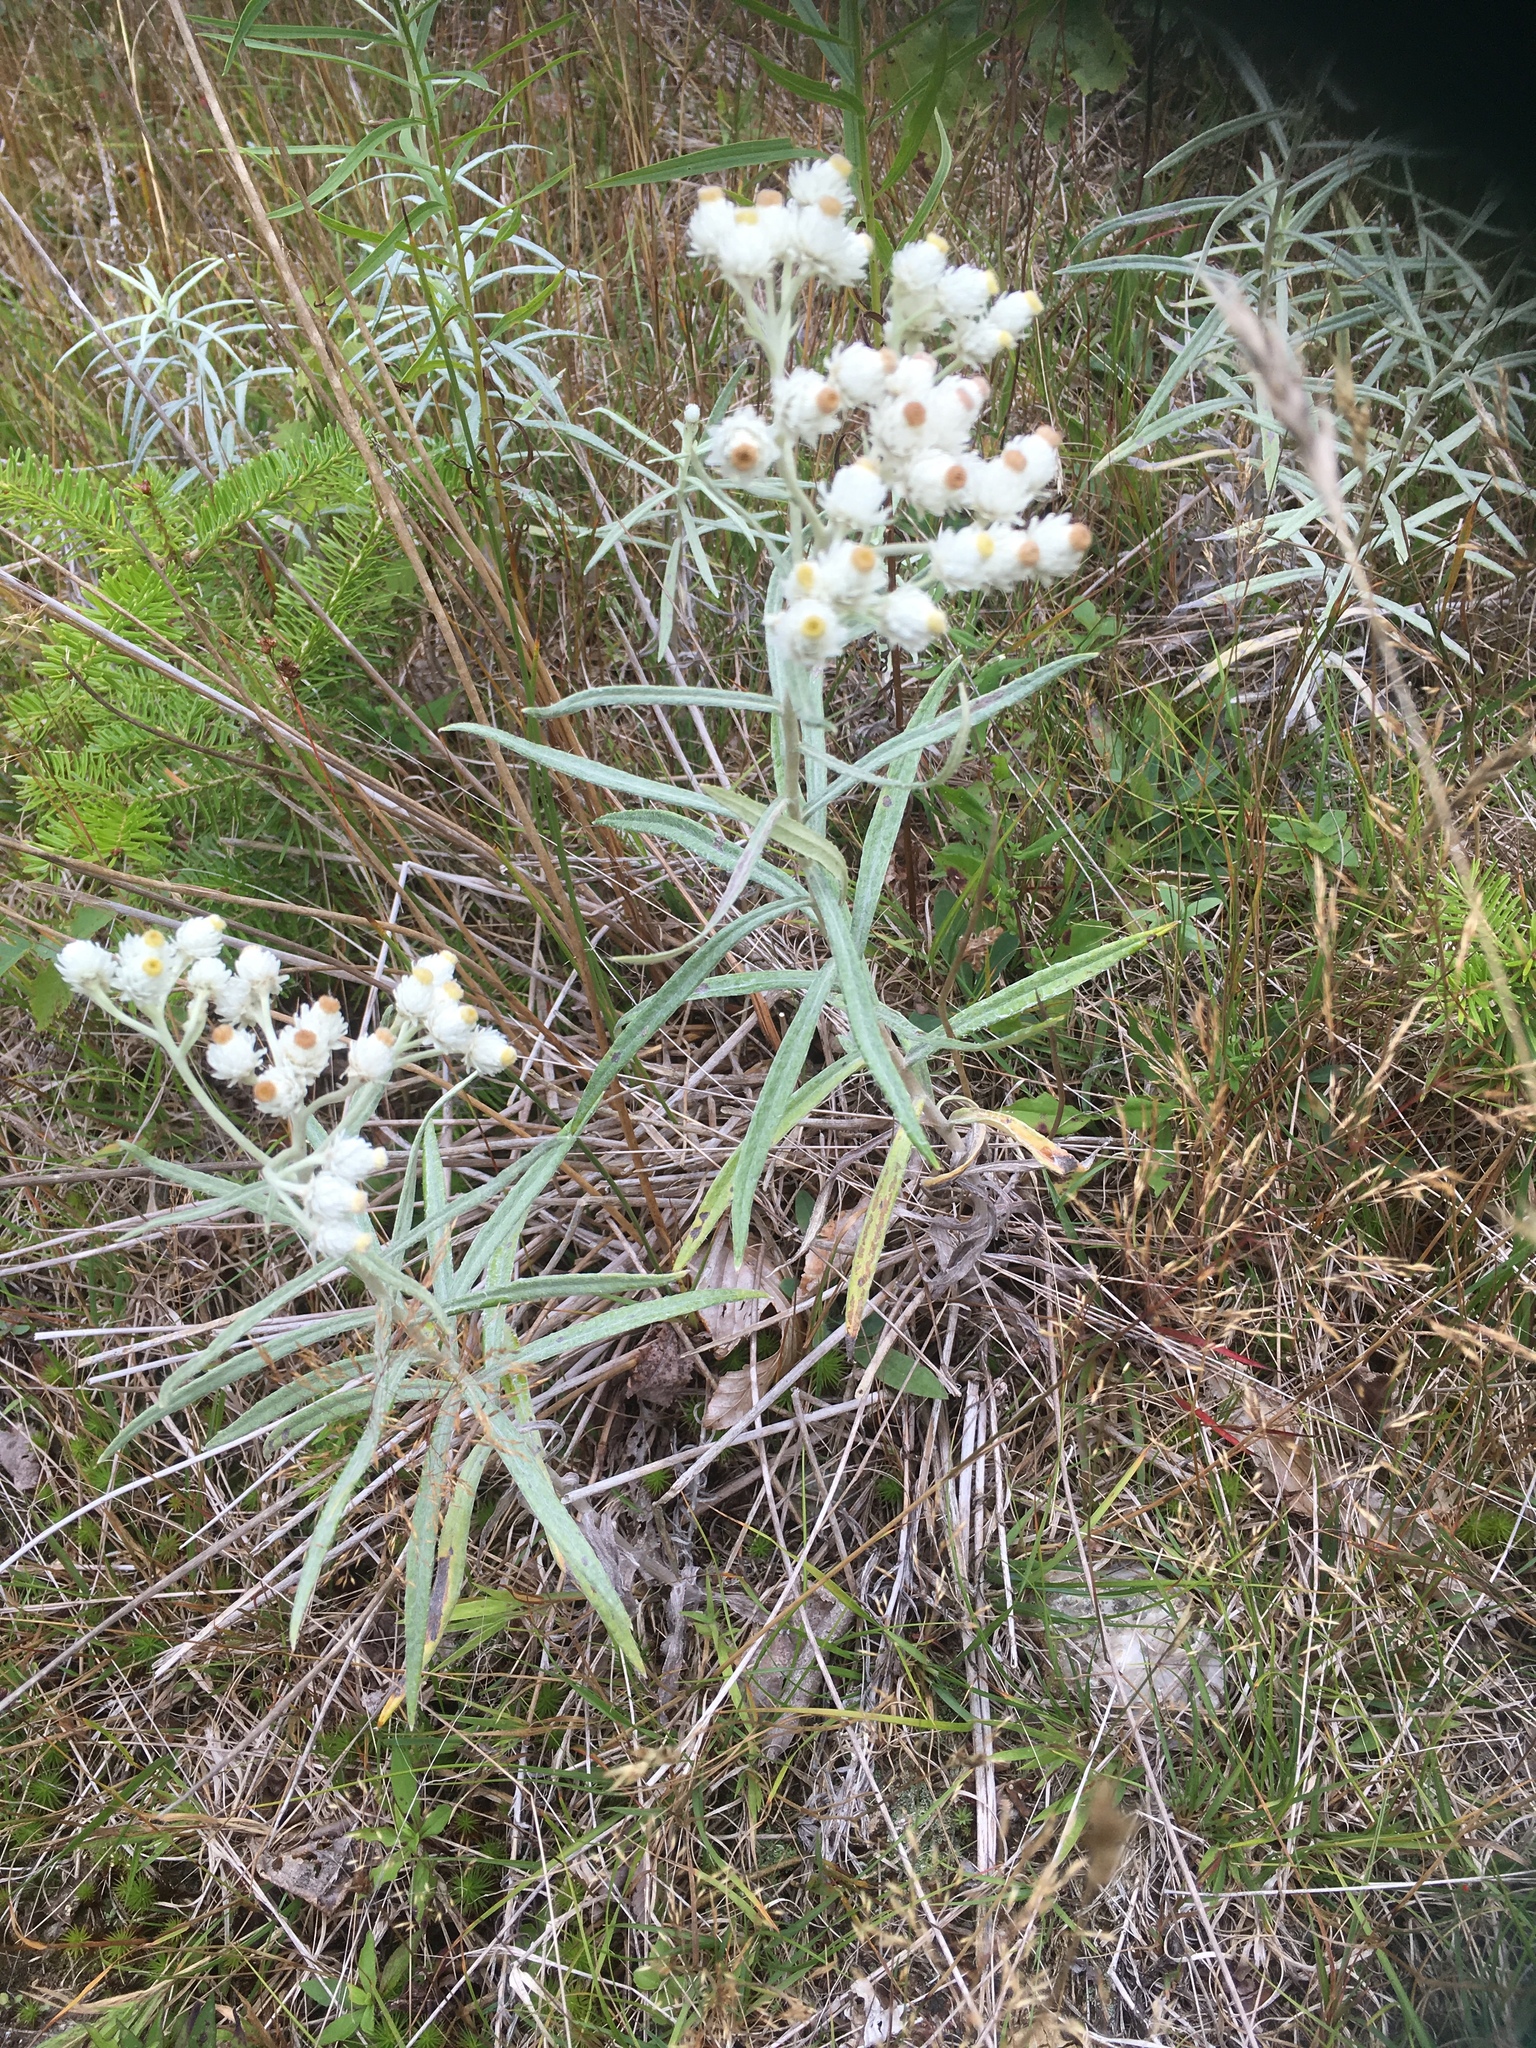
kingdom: Plantae
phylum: Tracheophyta
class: Magnoliopsida
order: Asterales
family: Asteraceae
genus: Anaphalis
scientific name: Anaphalis margaritacea
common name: Pearly everlasting
